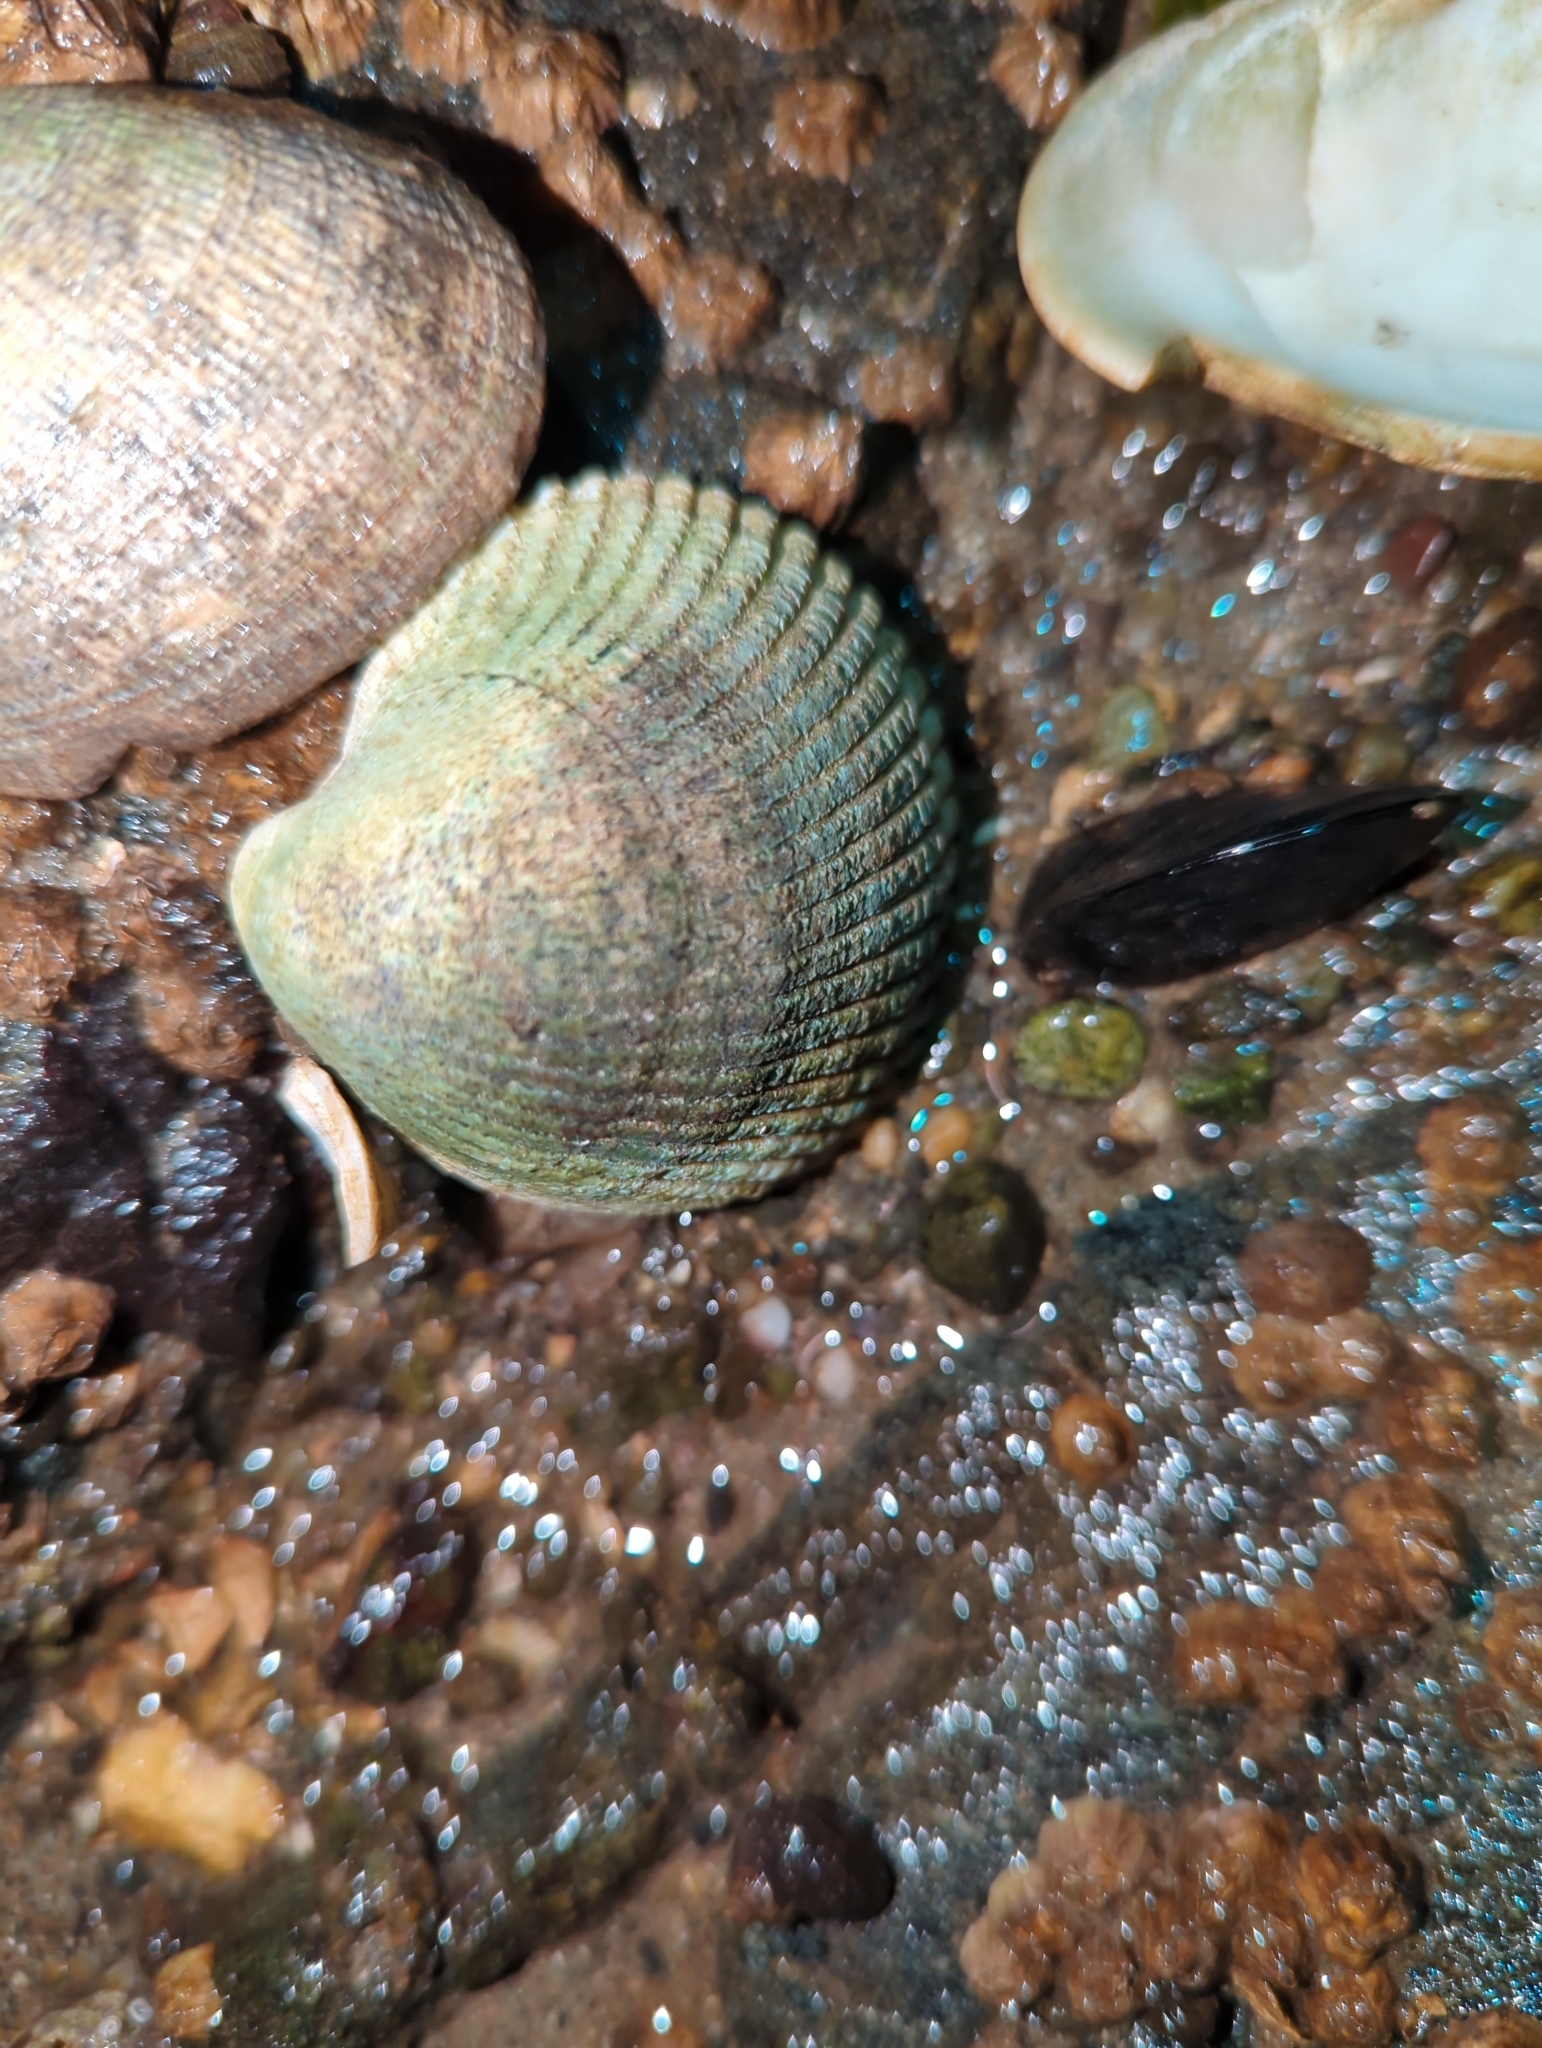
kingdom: Animalia
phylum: Mollusca
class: Bivalvia
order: Cardiida
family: Cardiidae
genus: Clinocardium
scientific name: Clinocardium nuttallii
